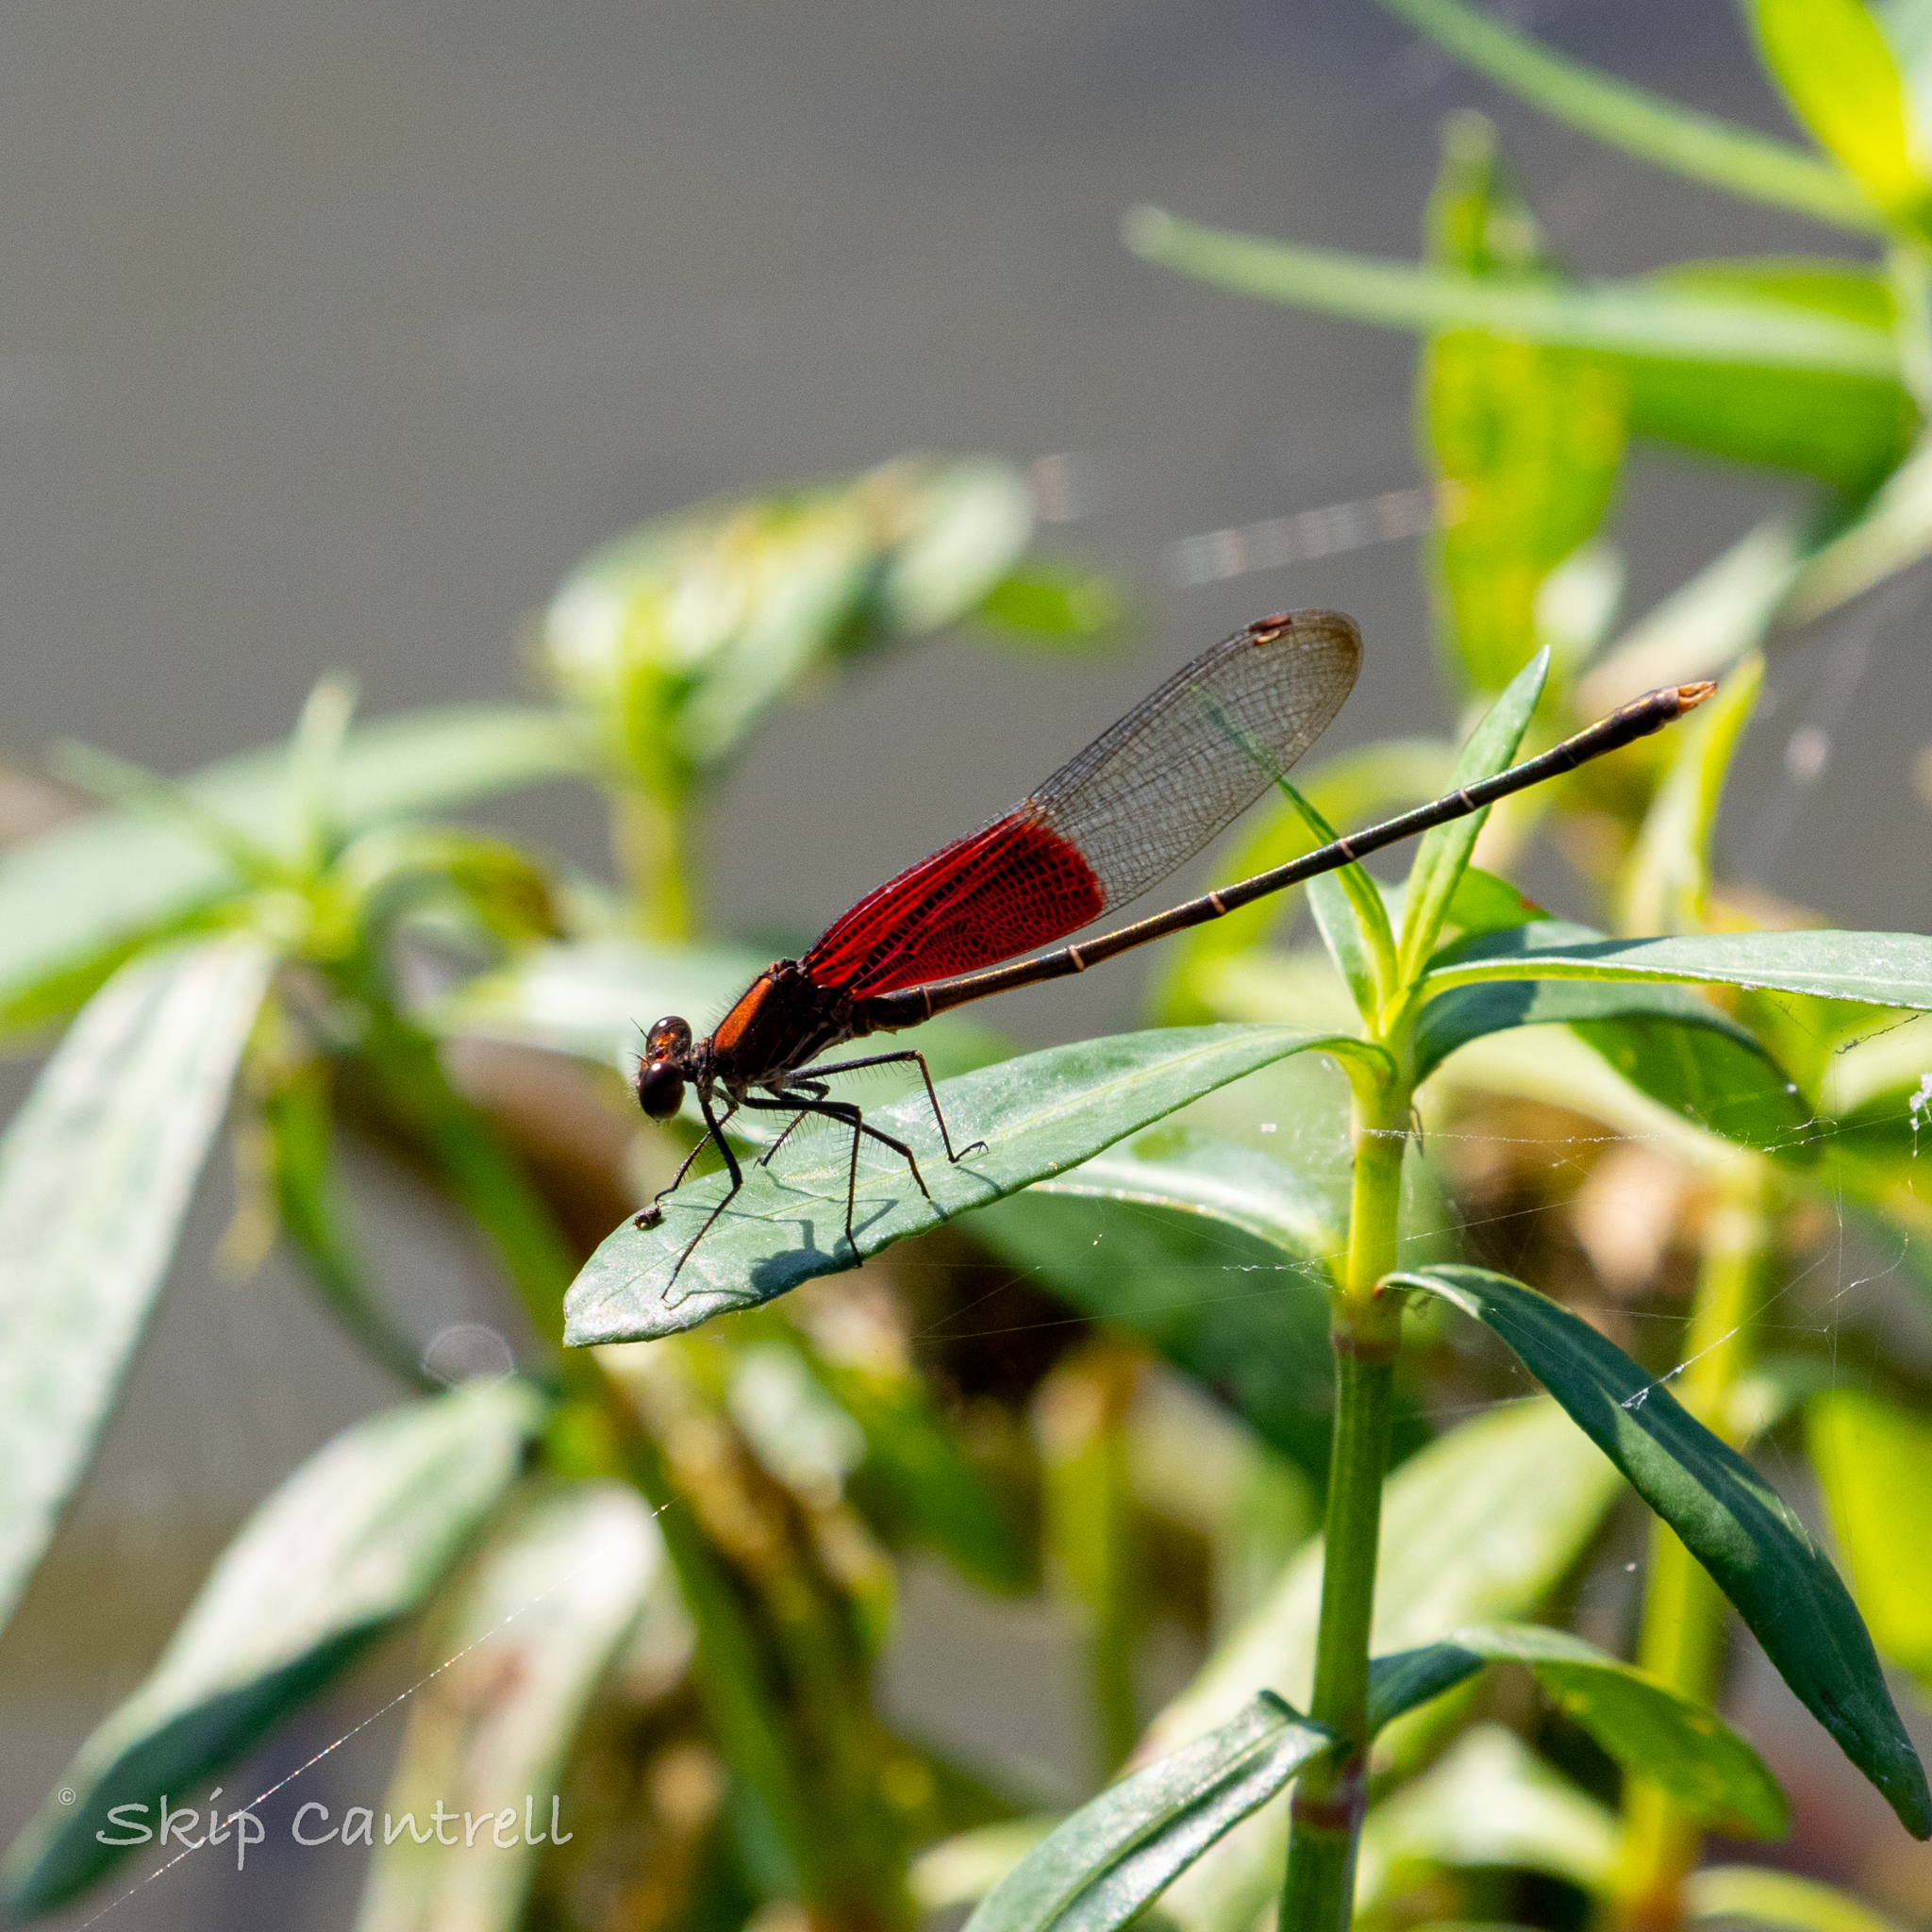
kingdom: Animalia
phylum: Arthropoda
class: Insecta
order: Odonata
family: Calopterygidae
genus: Hetaerina
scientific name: Hetaerina americana
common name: American rubyspot
